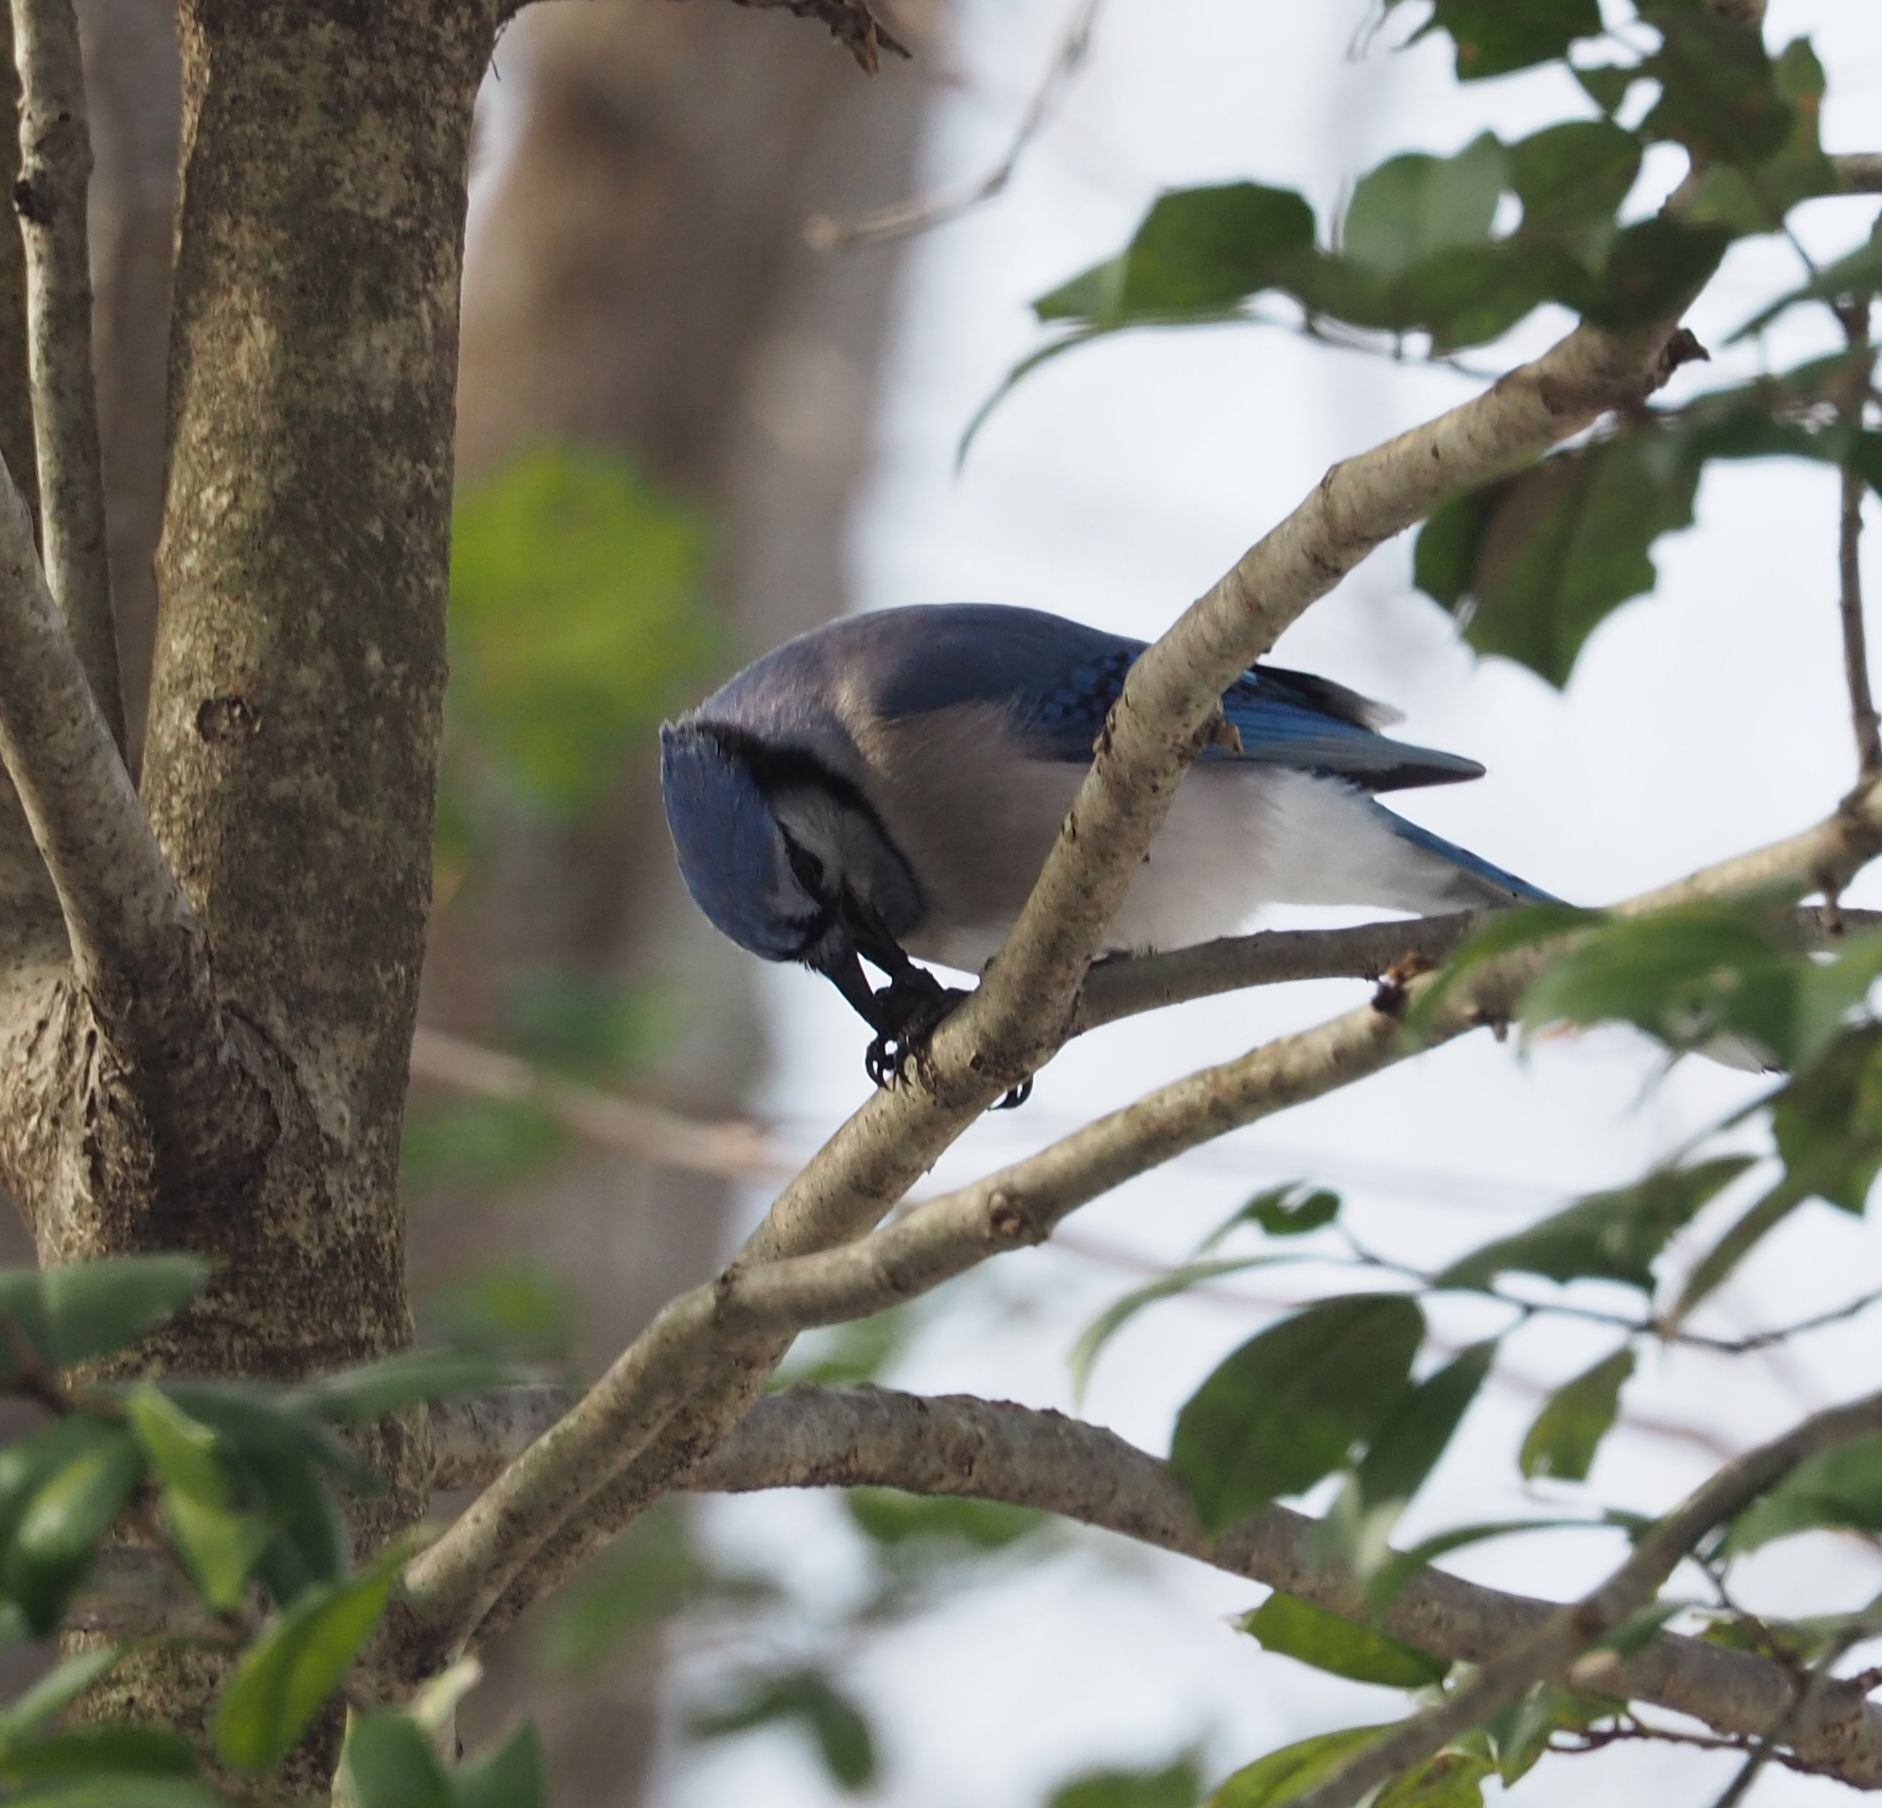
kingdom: Animalia
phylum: Chordata
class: Aves
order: Passeriformes
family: Corvidae
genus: Cyanocitta
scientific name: Cyanocitta cristata
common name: Blue jay
